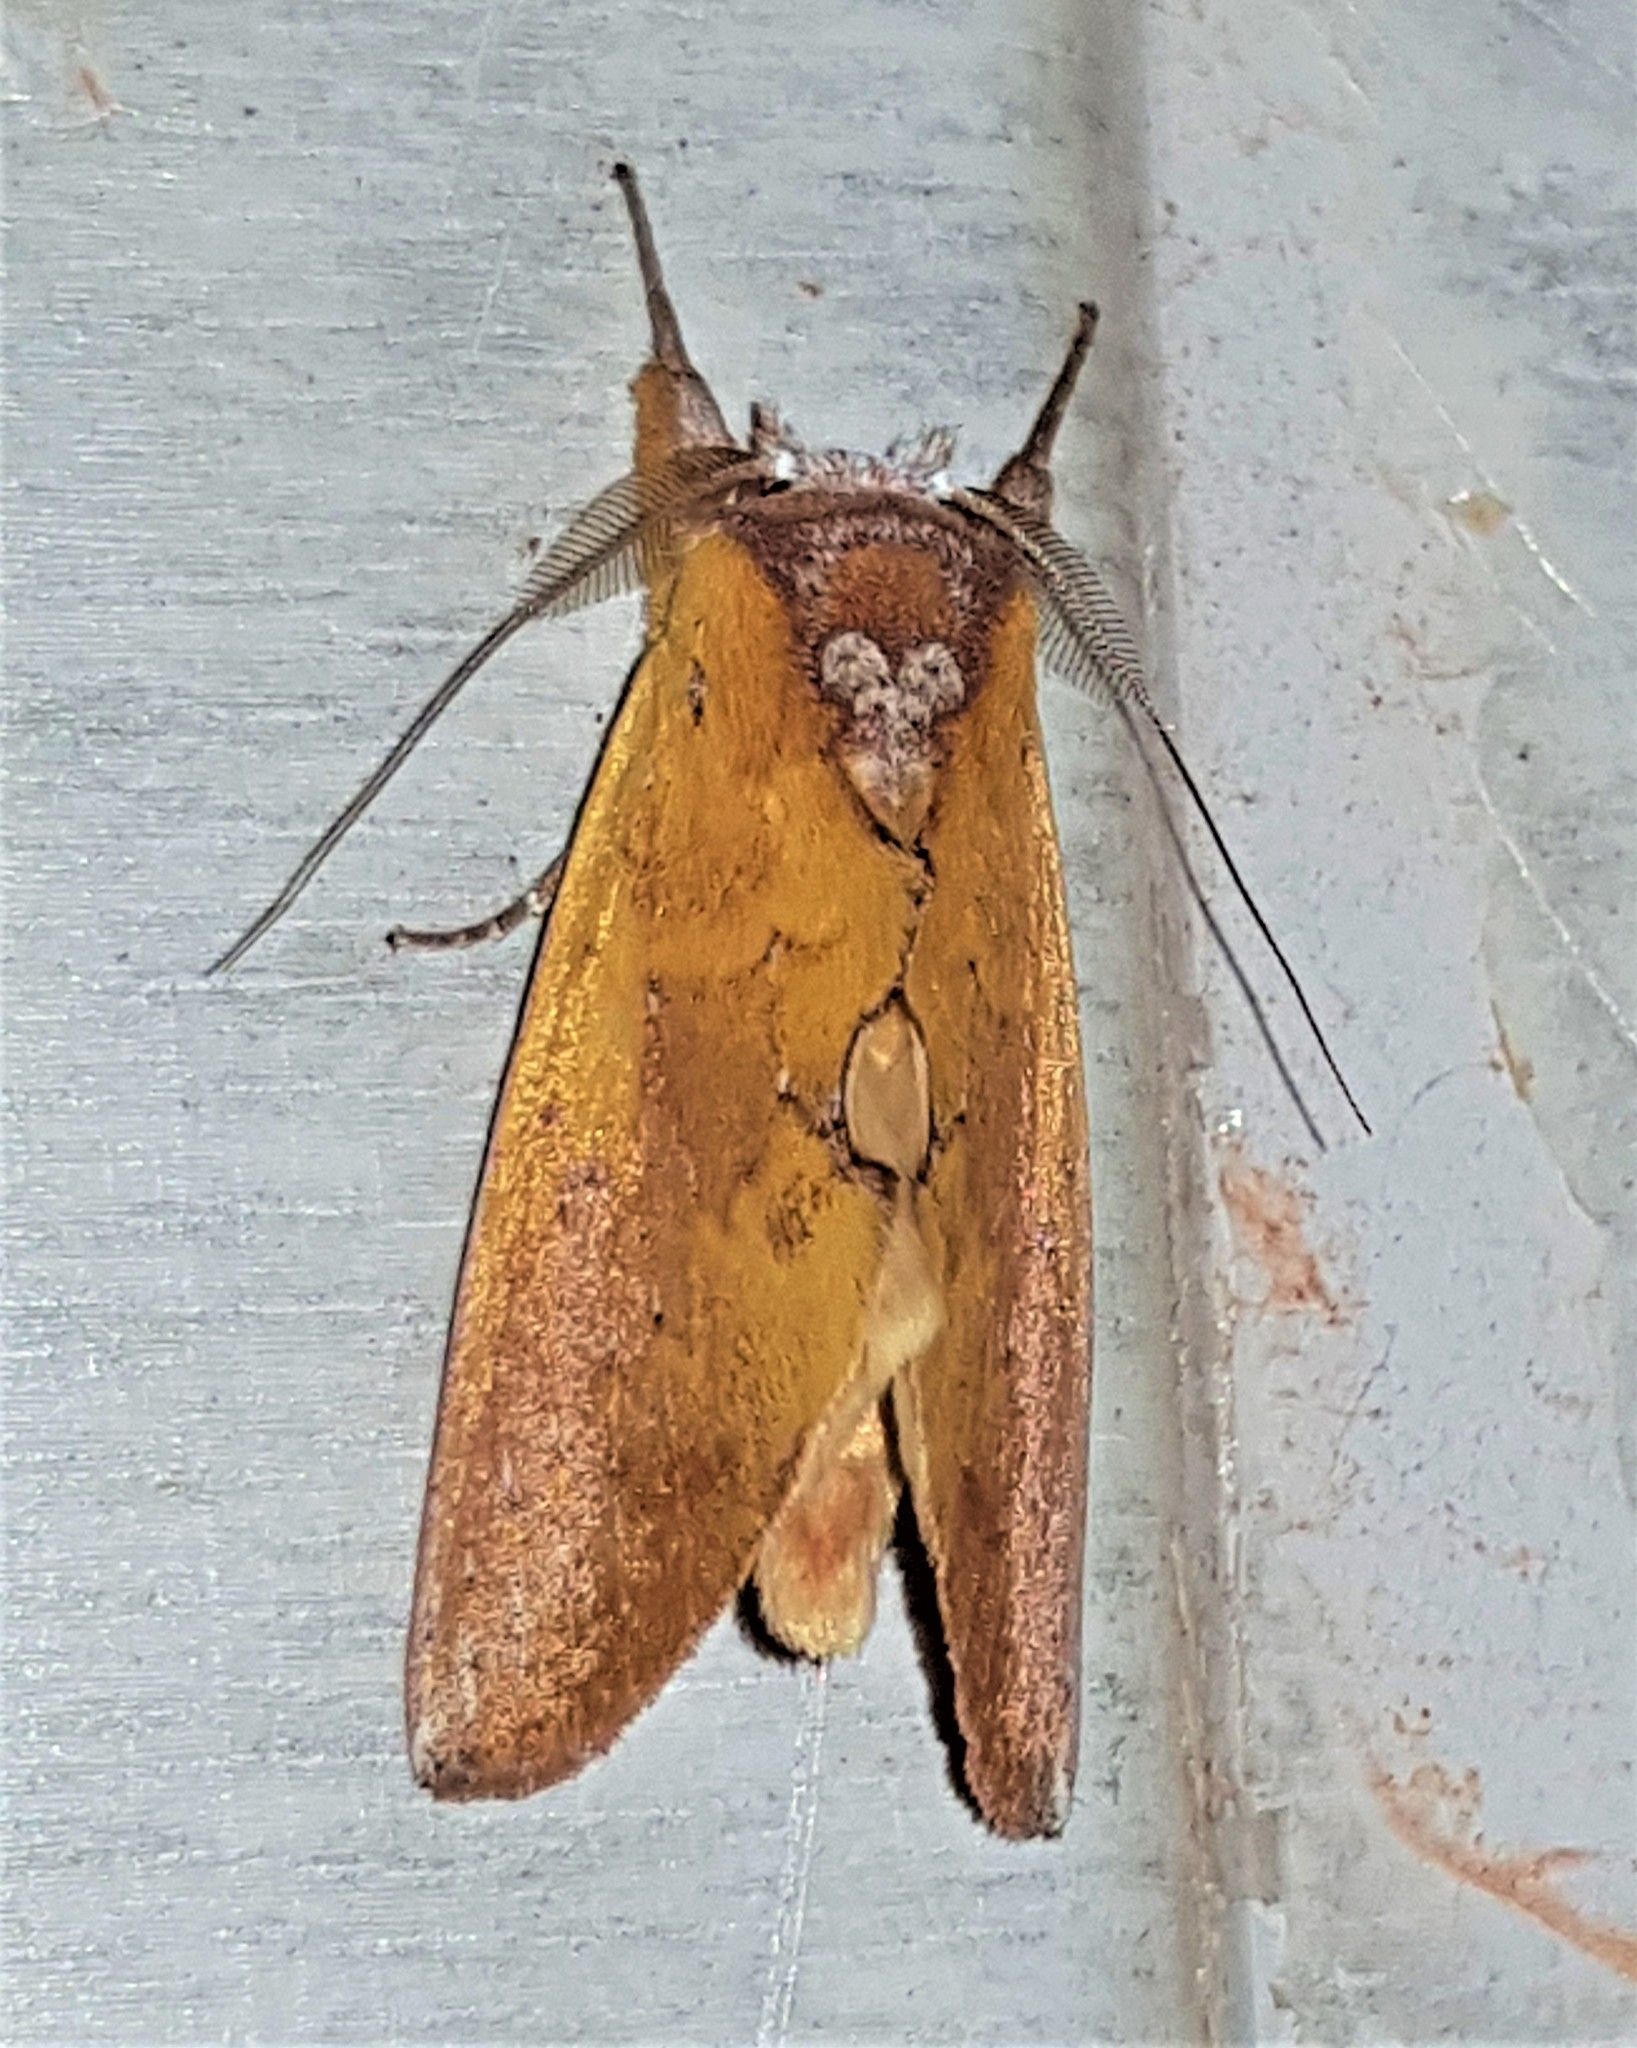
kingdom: Animalia
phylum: Arthropoda
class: Insecta
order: Lepidoptera
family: Notodontidae
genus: Hemiceras
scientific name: Hemiceras flavescens
